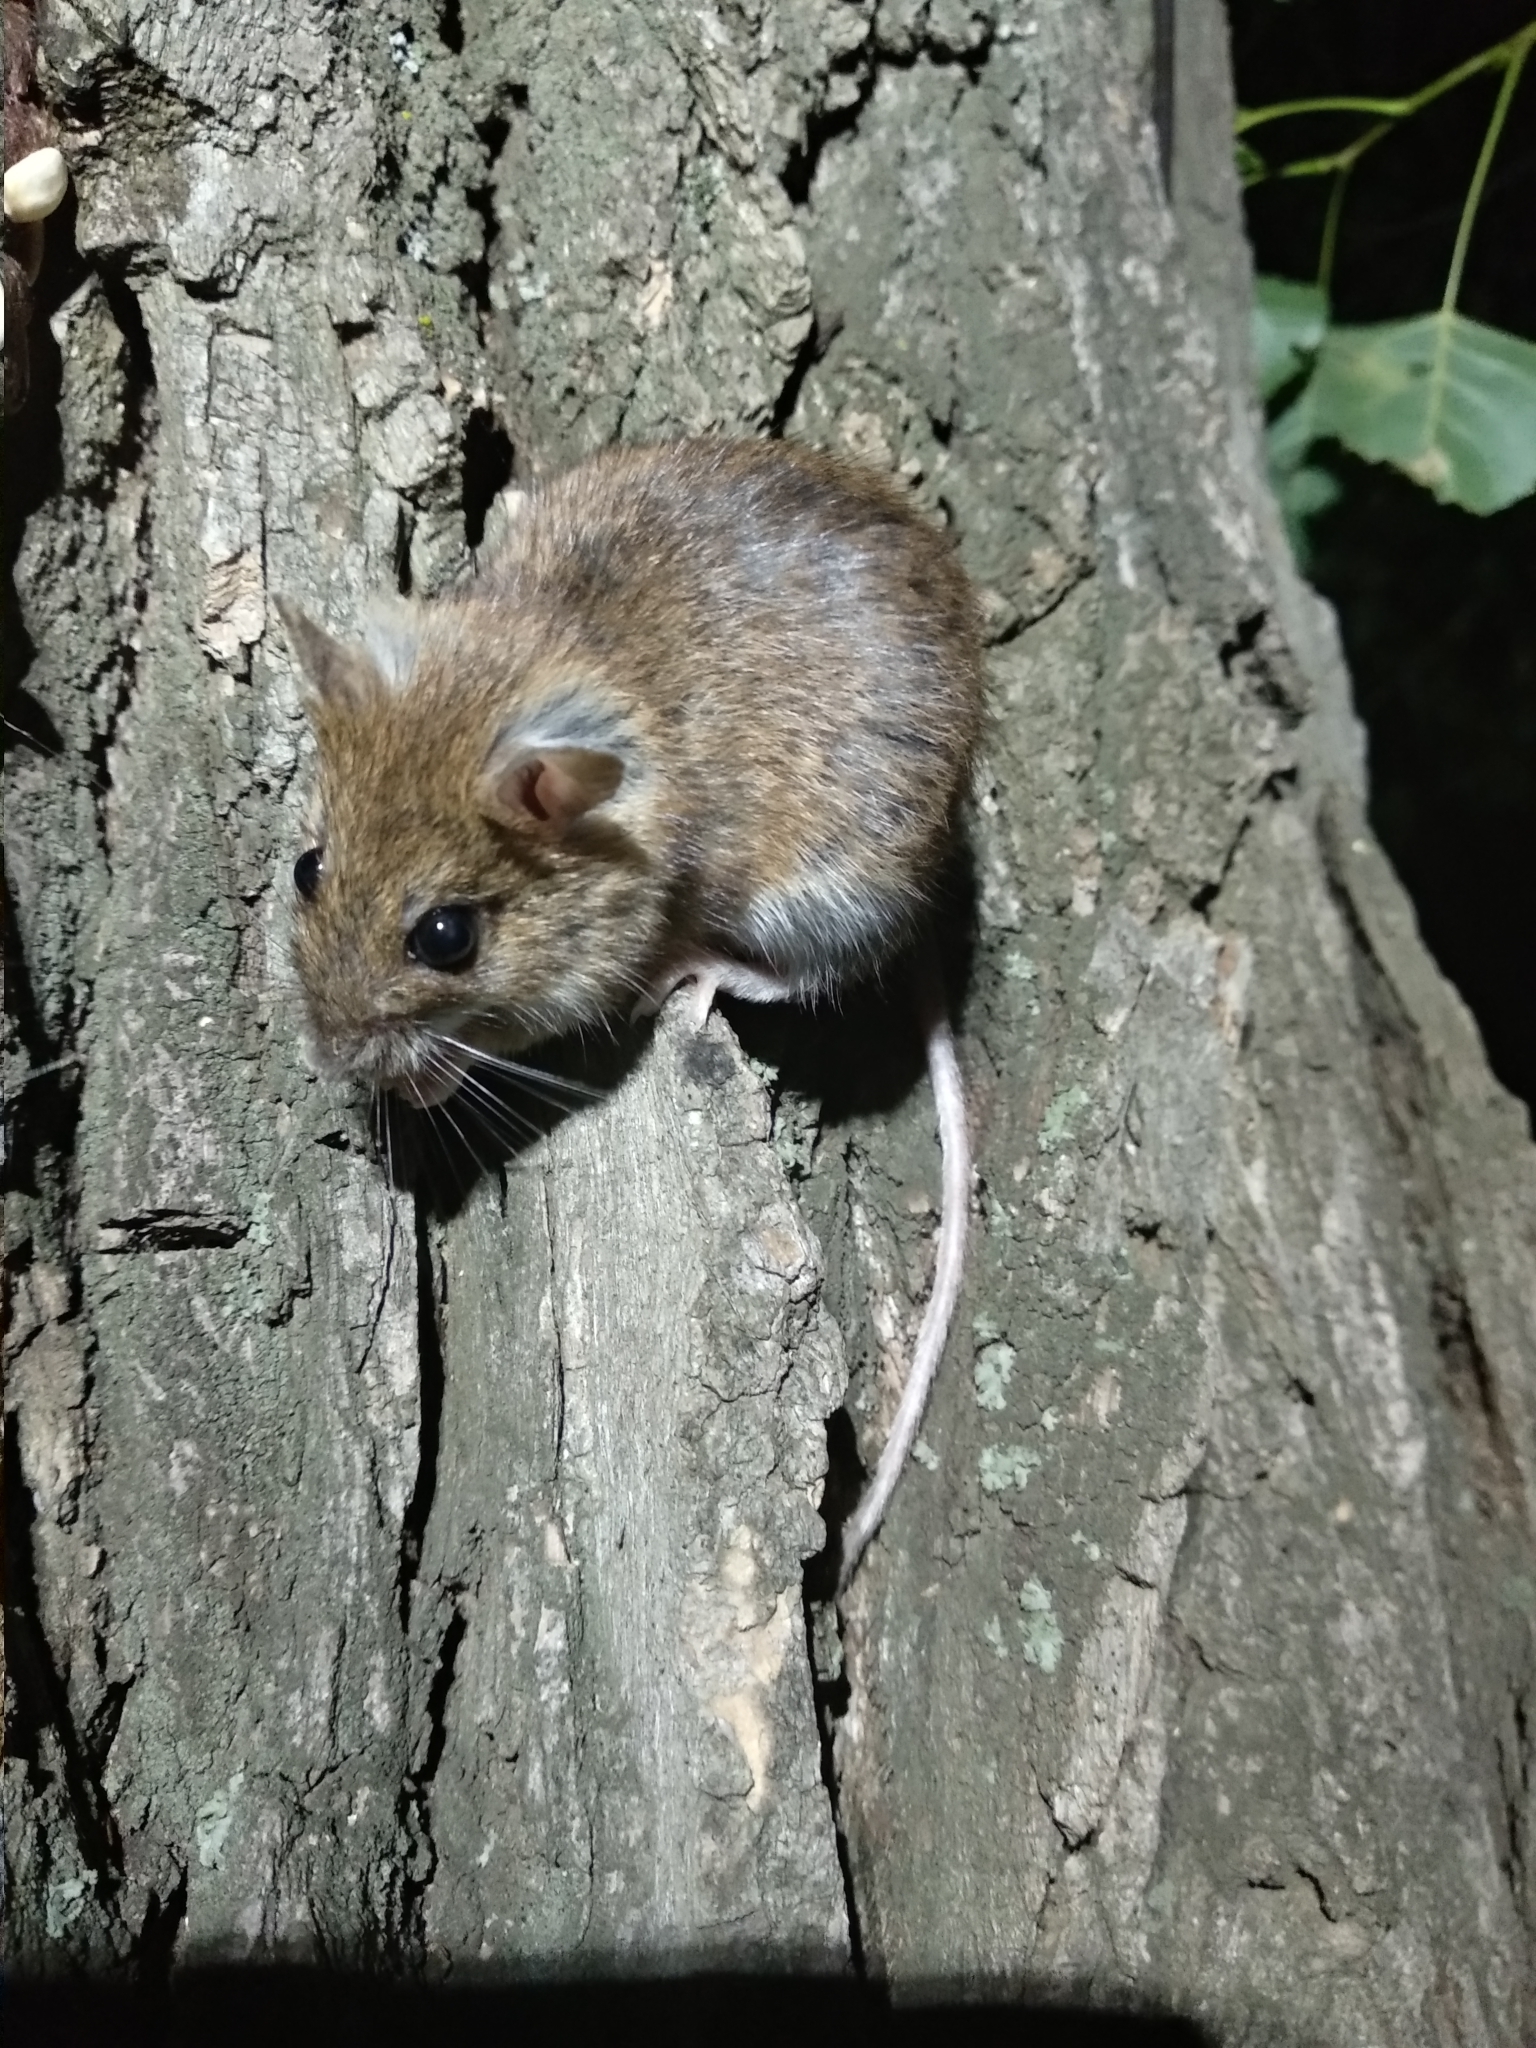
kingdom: Animalia
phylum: Chordata
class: Mammalia
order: Rodentia
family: Muridae
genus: Apodemus
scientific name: Apodemus uralensis
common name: Herb field mouse
